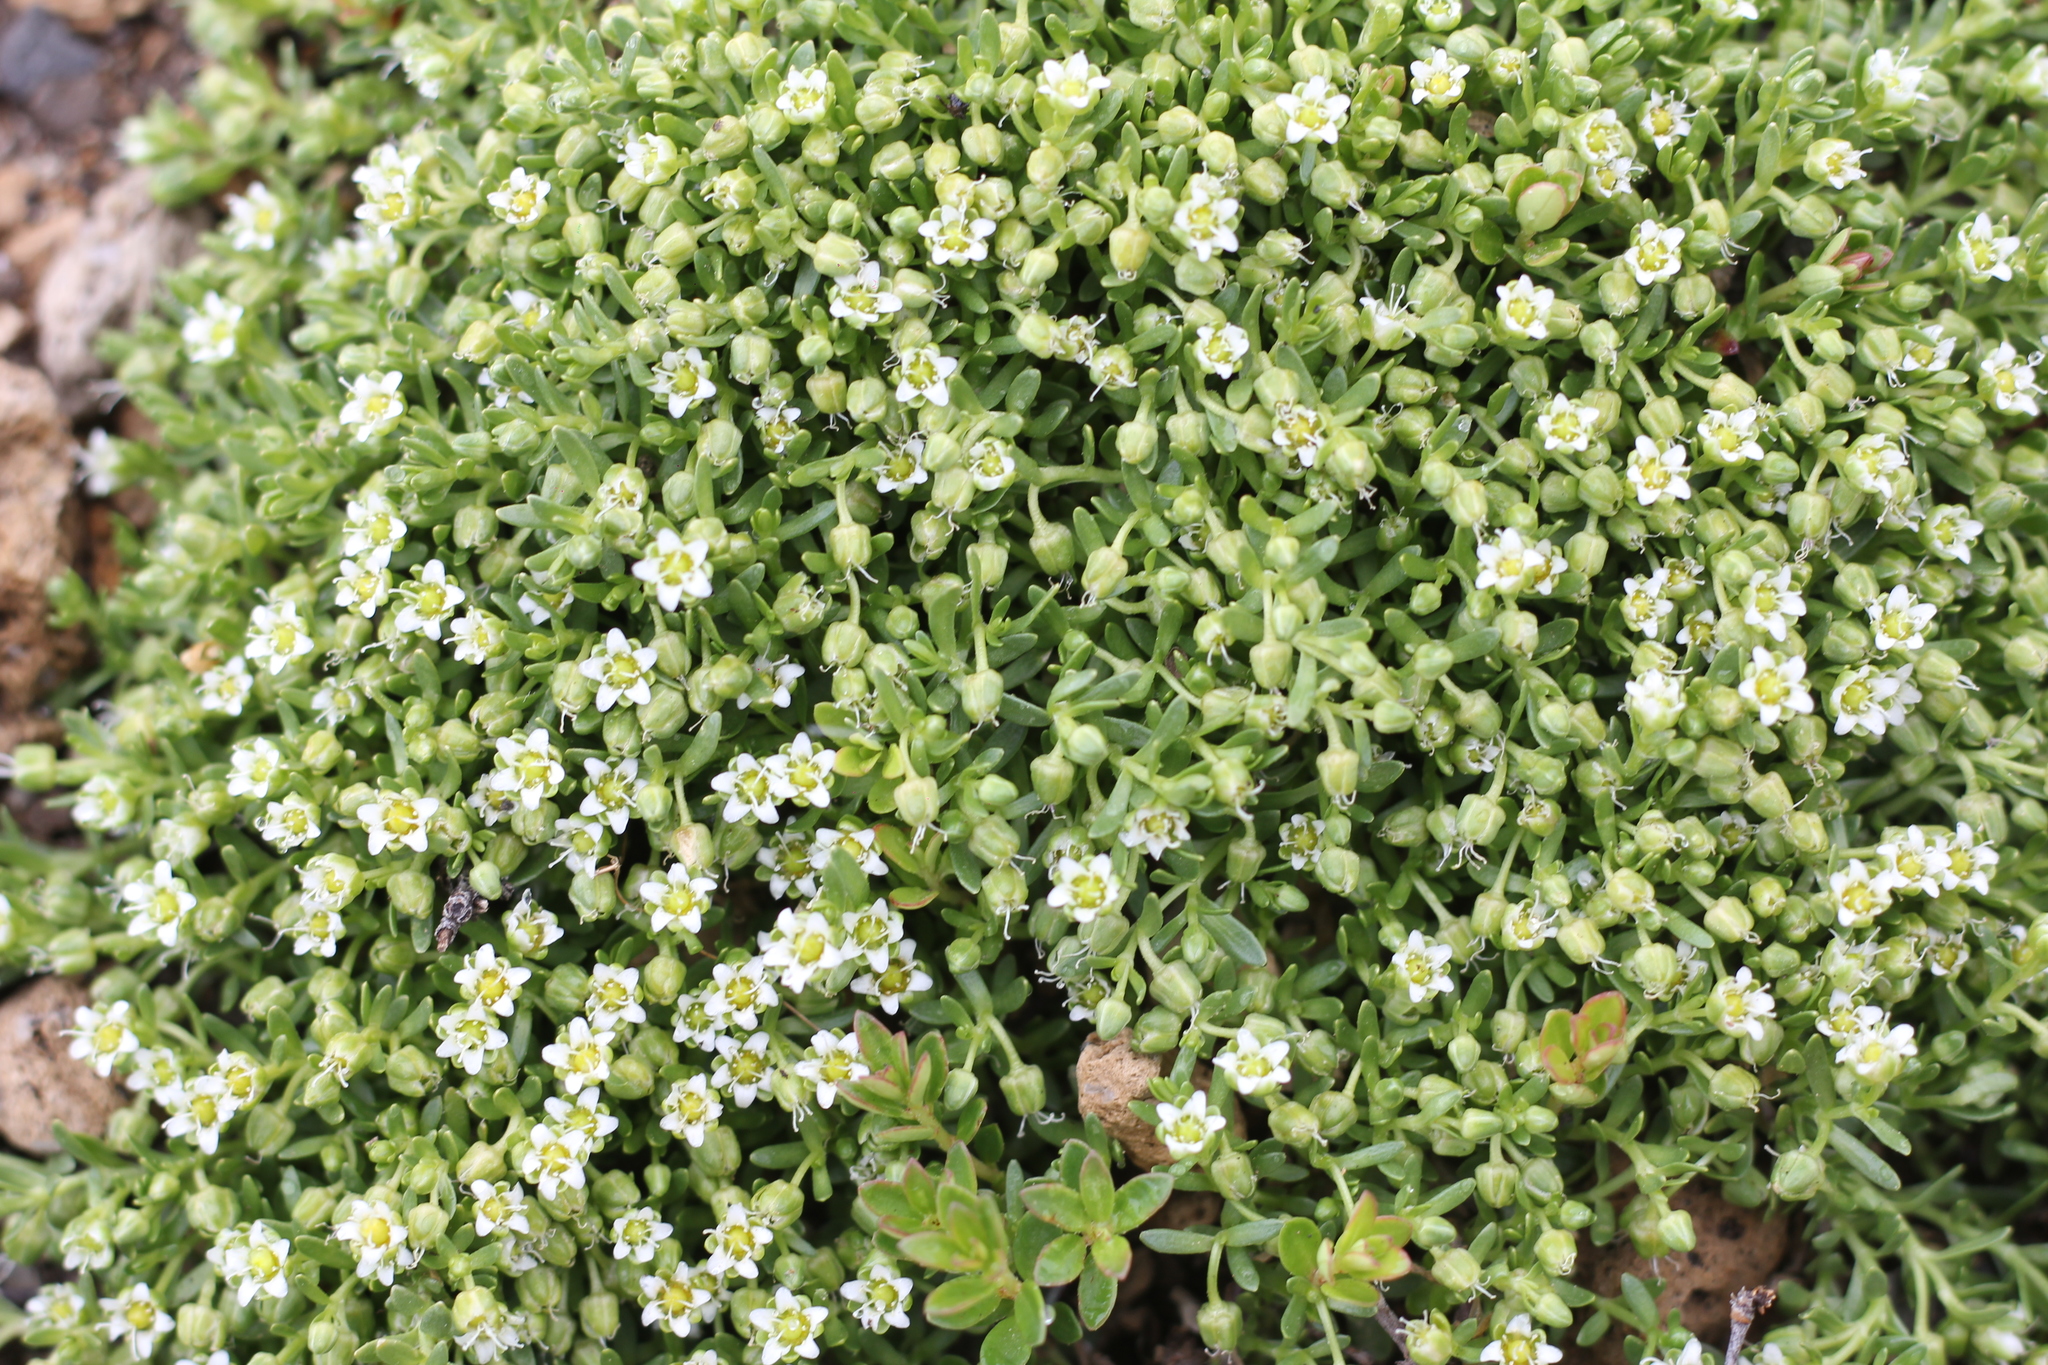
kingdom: Plantae
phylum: Tracheophyta
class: Magnoliopsida
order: Caryophyllales
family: Caryophyllaceae
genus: Arenaria
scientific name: Arenaria serpens
